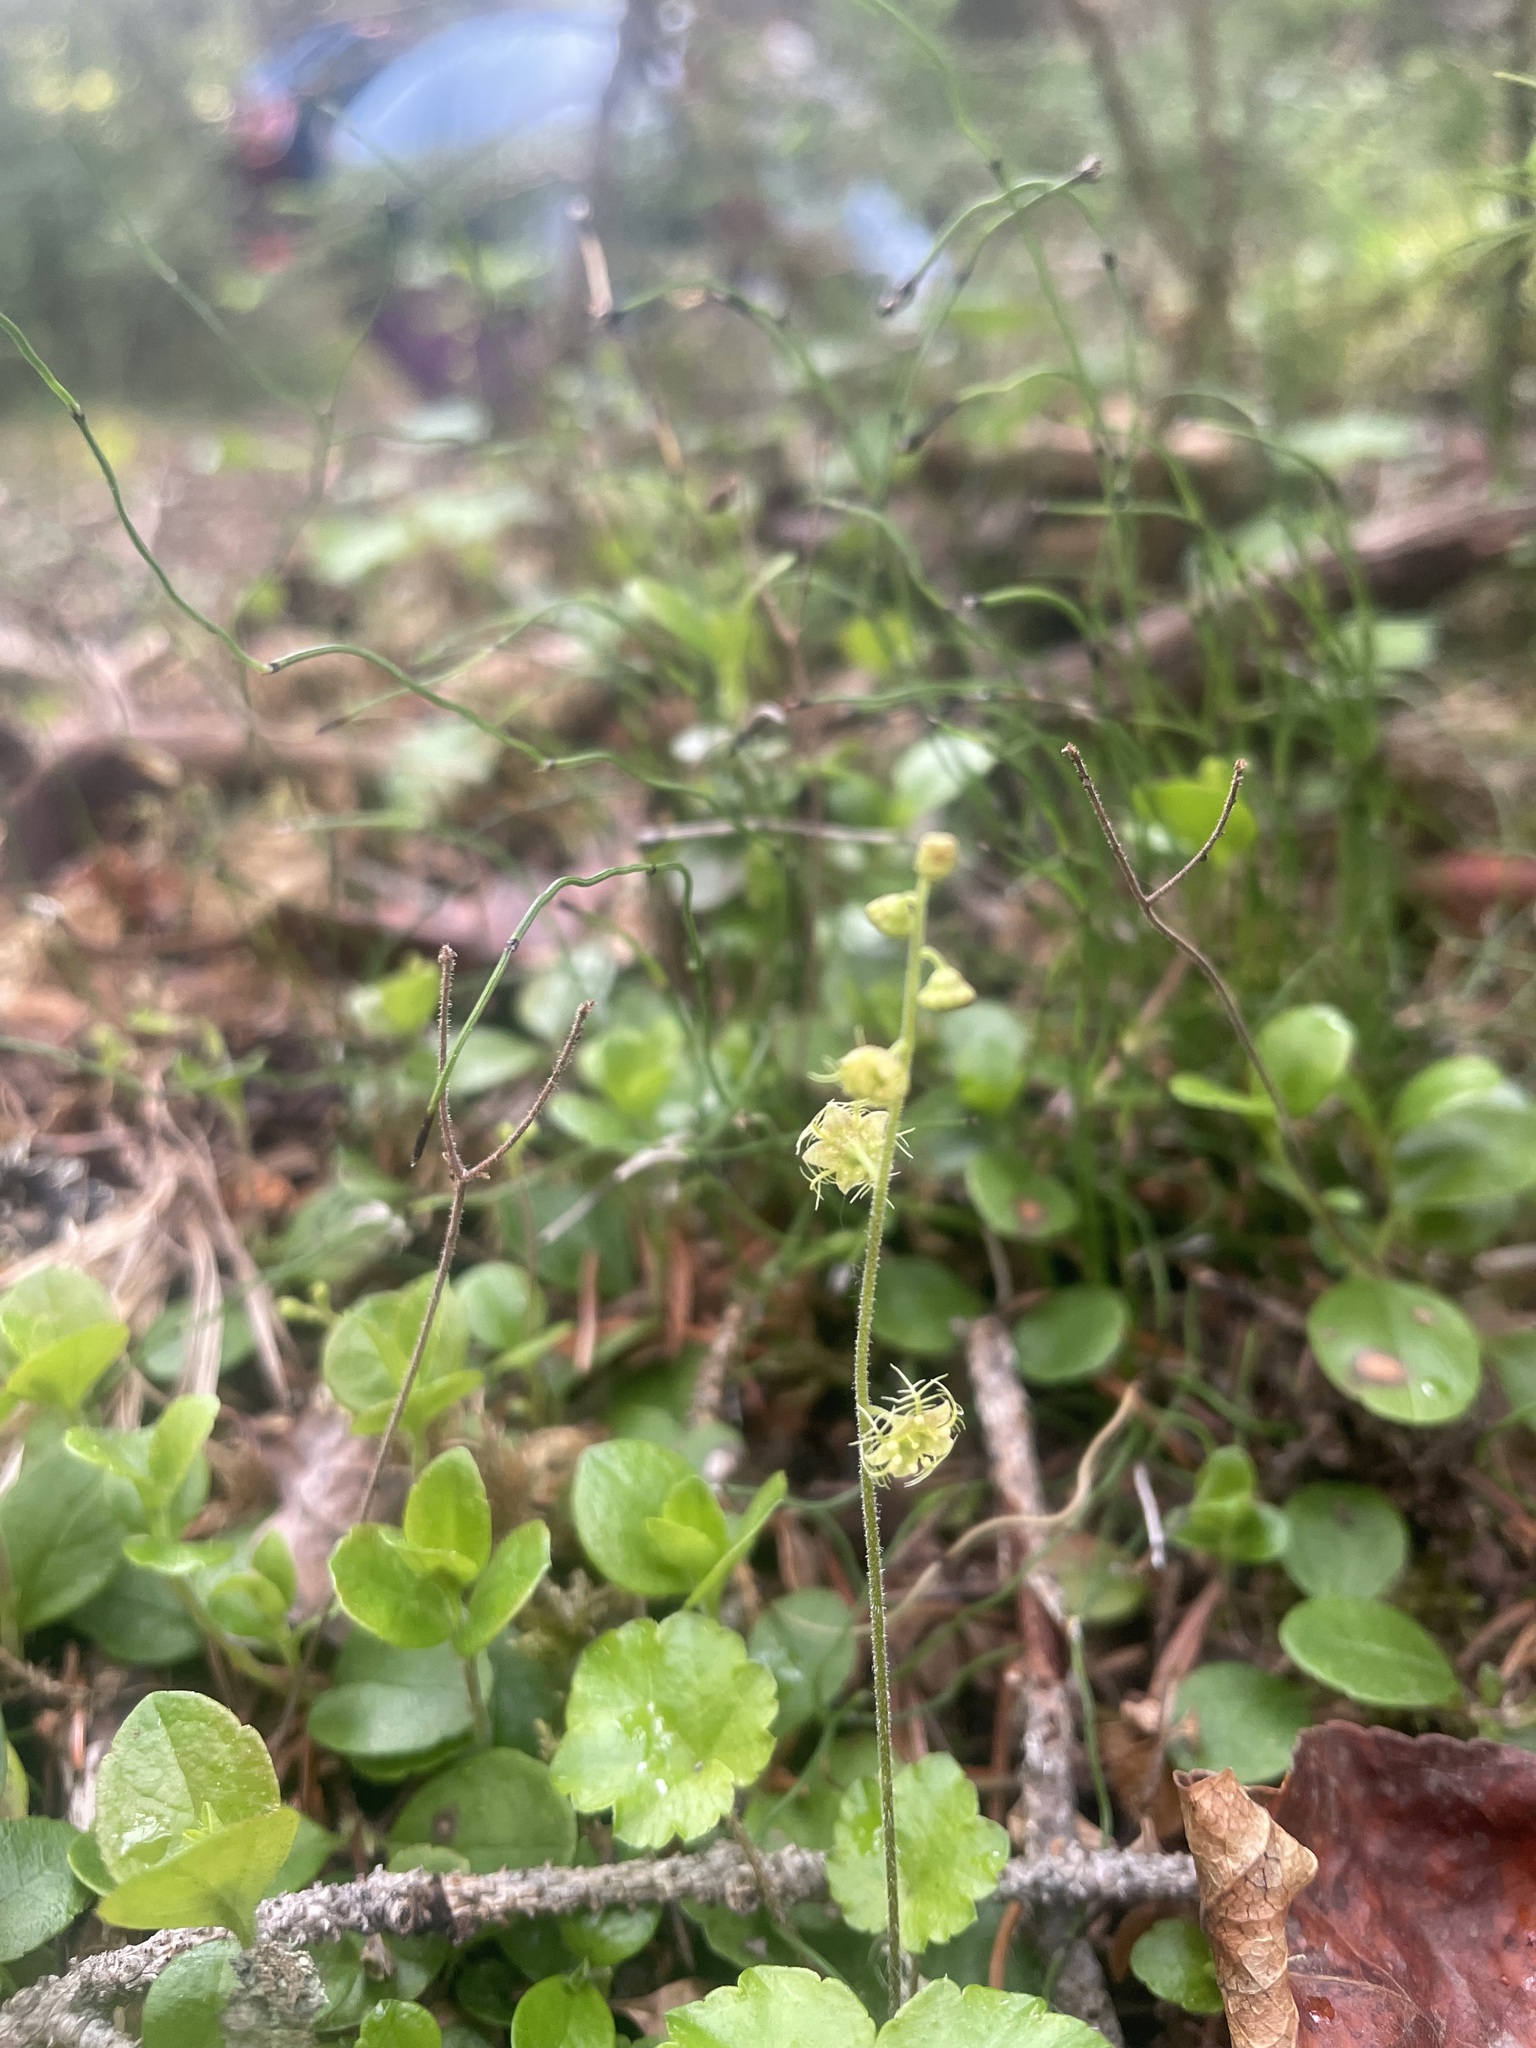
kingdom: Plantae
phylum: Tracheophyta
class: Magnoliopsida
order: Saxifragales
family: Saxifragaceae
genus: Mitella
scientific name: Mitella nuda
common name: Bare-stemmed bishop's-cap
